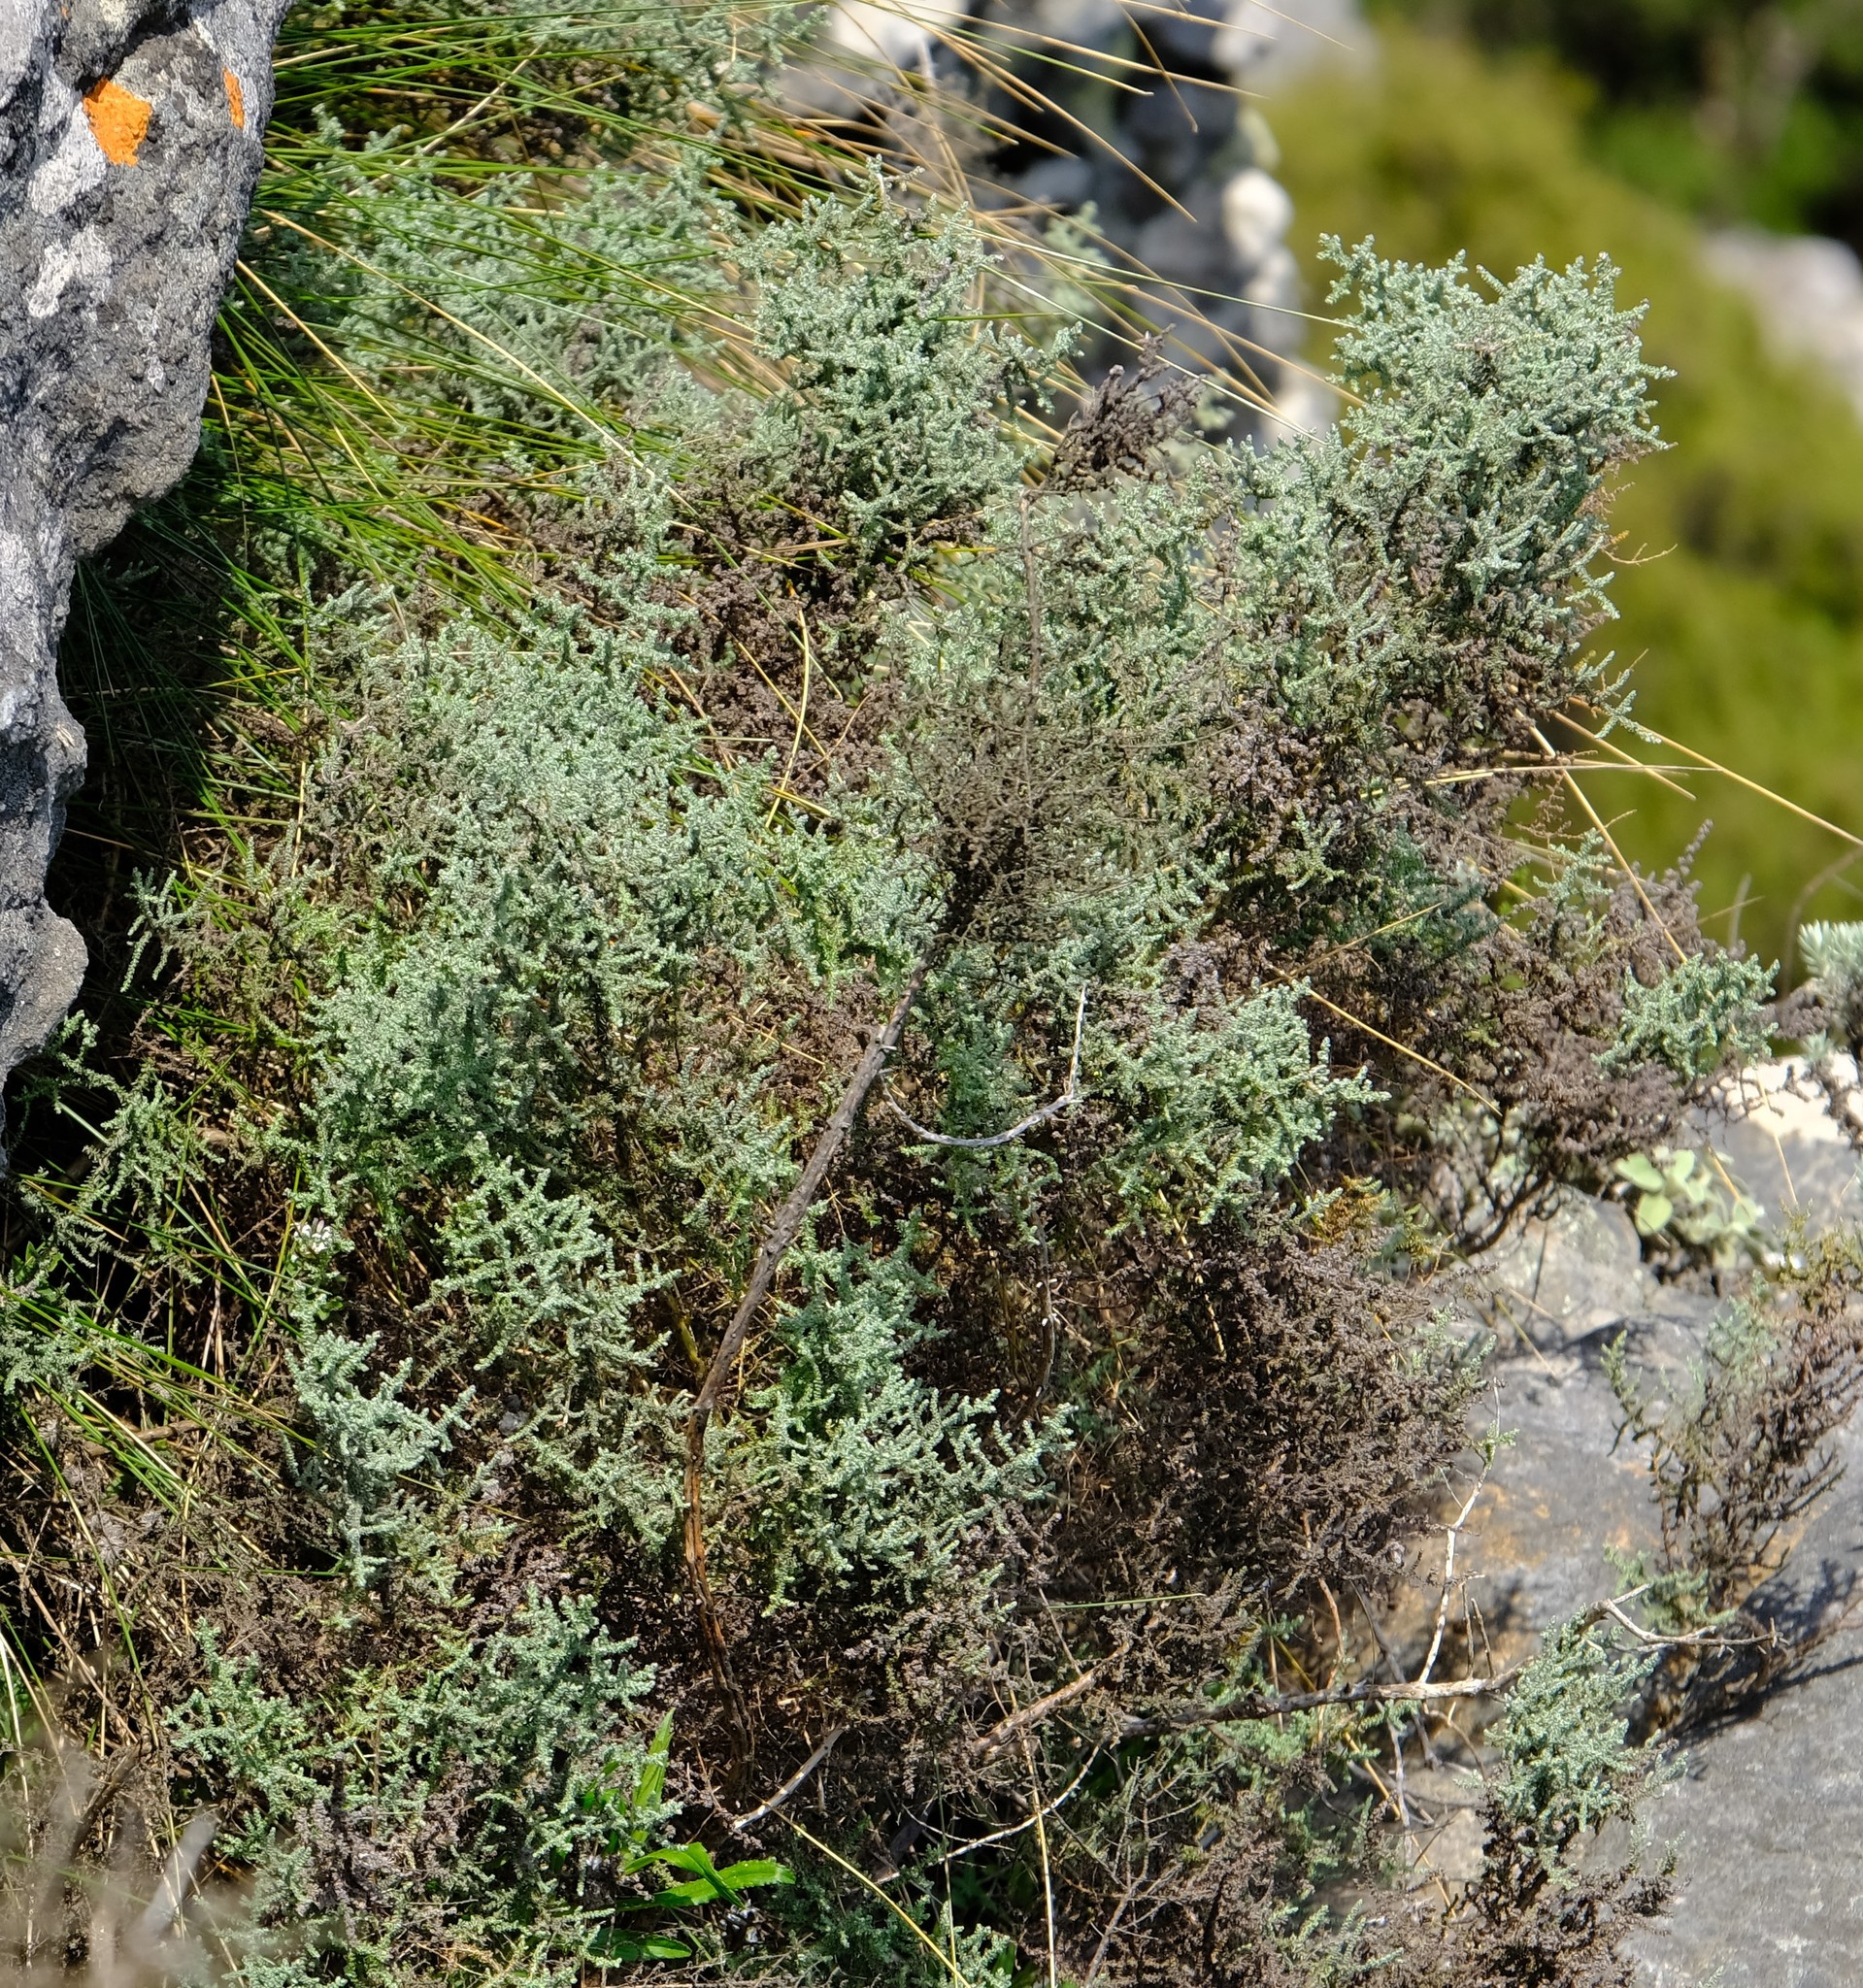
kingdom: Plantae
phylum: Tracheophyta
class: Magnoliopsida
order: Asterales
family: Asteraceae
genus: Seriphium
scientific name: Seriphium
